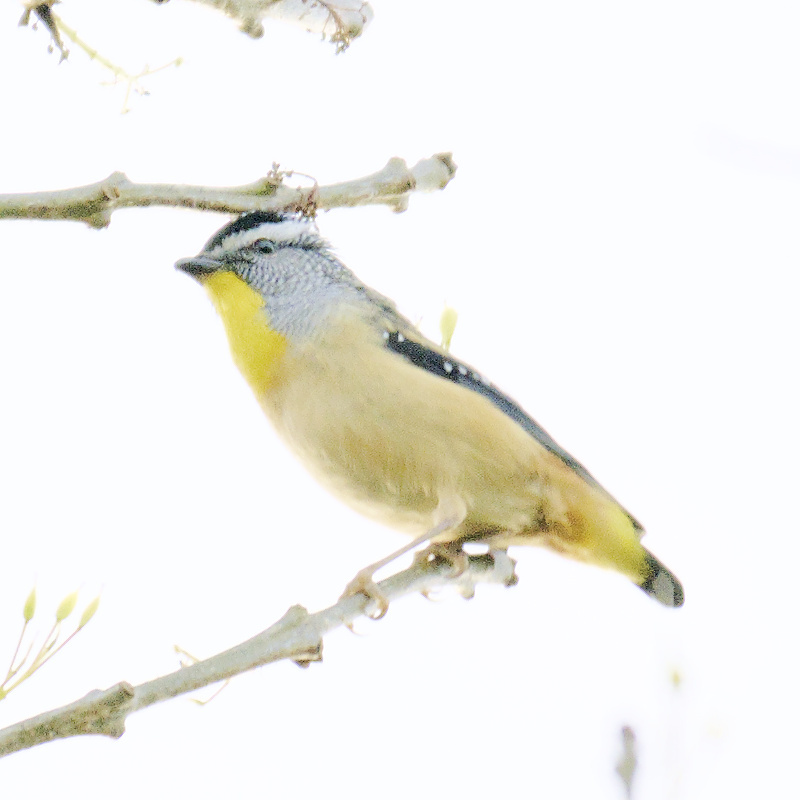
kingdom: Animalia
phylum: Chordata
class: Aves
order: Passeriformes
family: Pardalotidae
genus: Pardalotus
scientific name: Pardalotus punctatus
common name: Spotted pardalote
